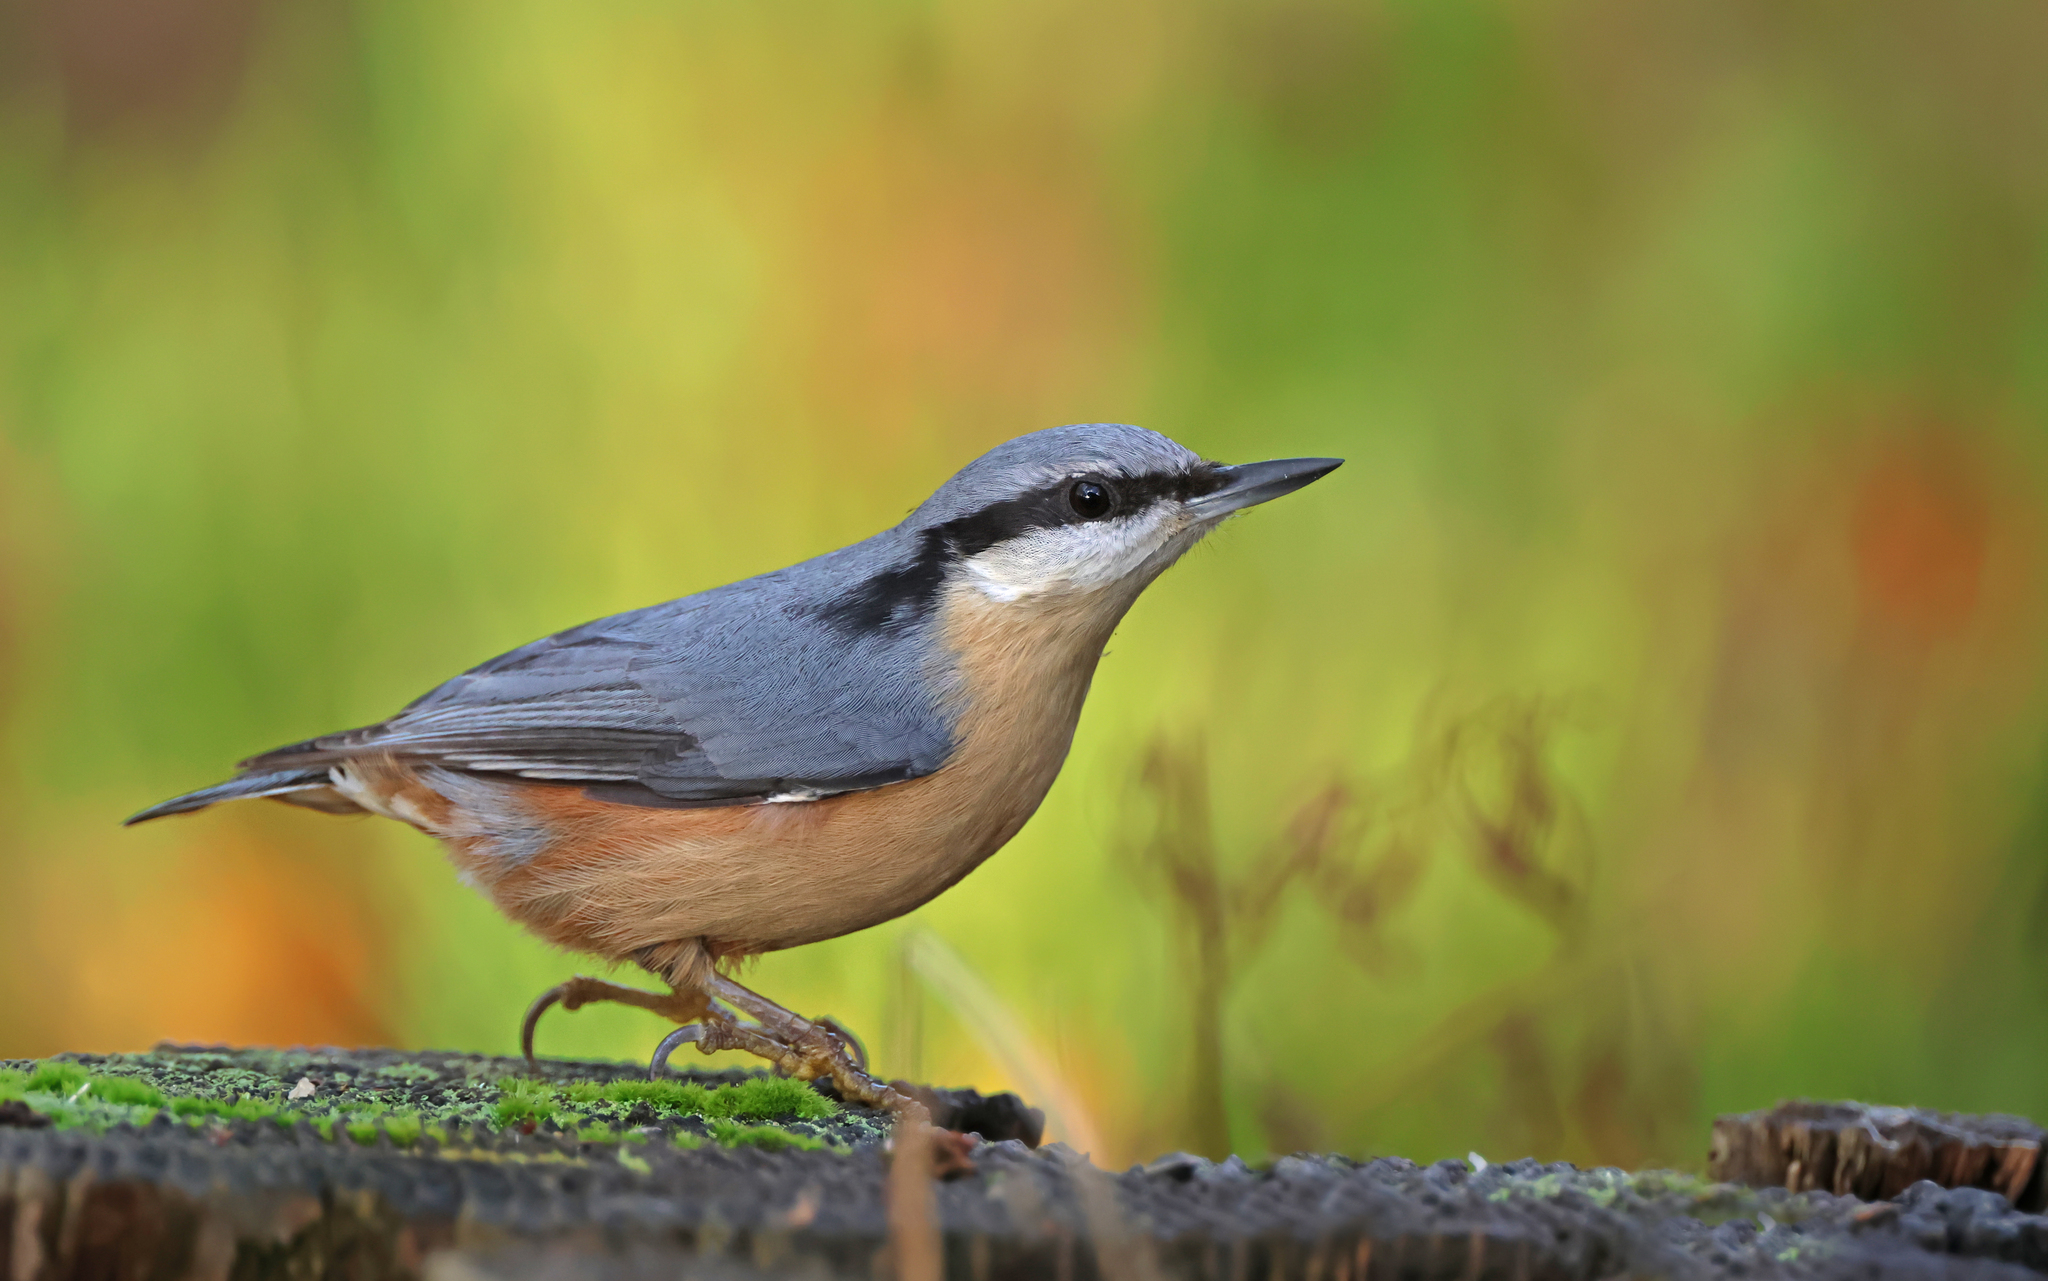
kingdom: Animalia
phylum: Chordata
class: Aves
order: Passeriformes
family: Sittidae
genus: Sitta
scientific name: Sitta europaea
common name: Eurasian nuthatch
